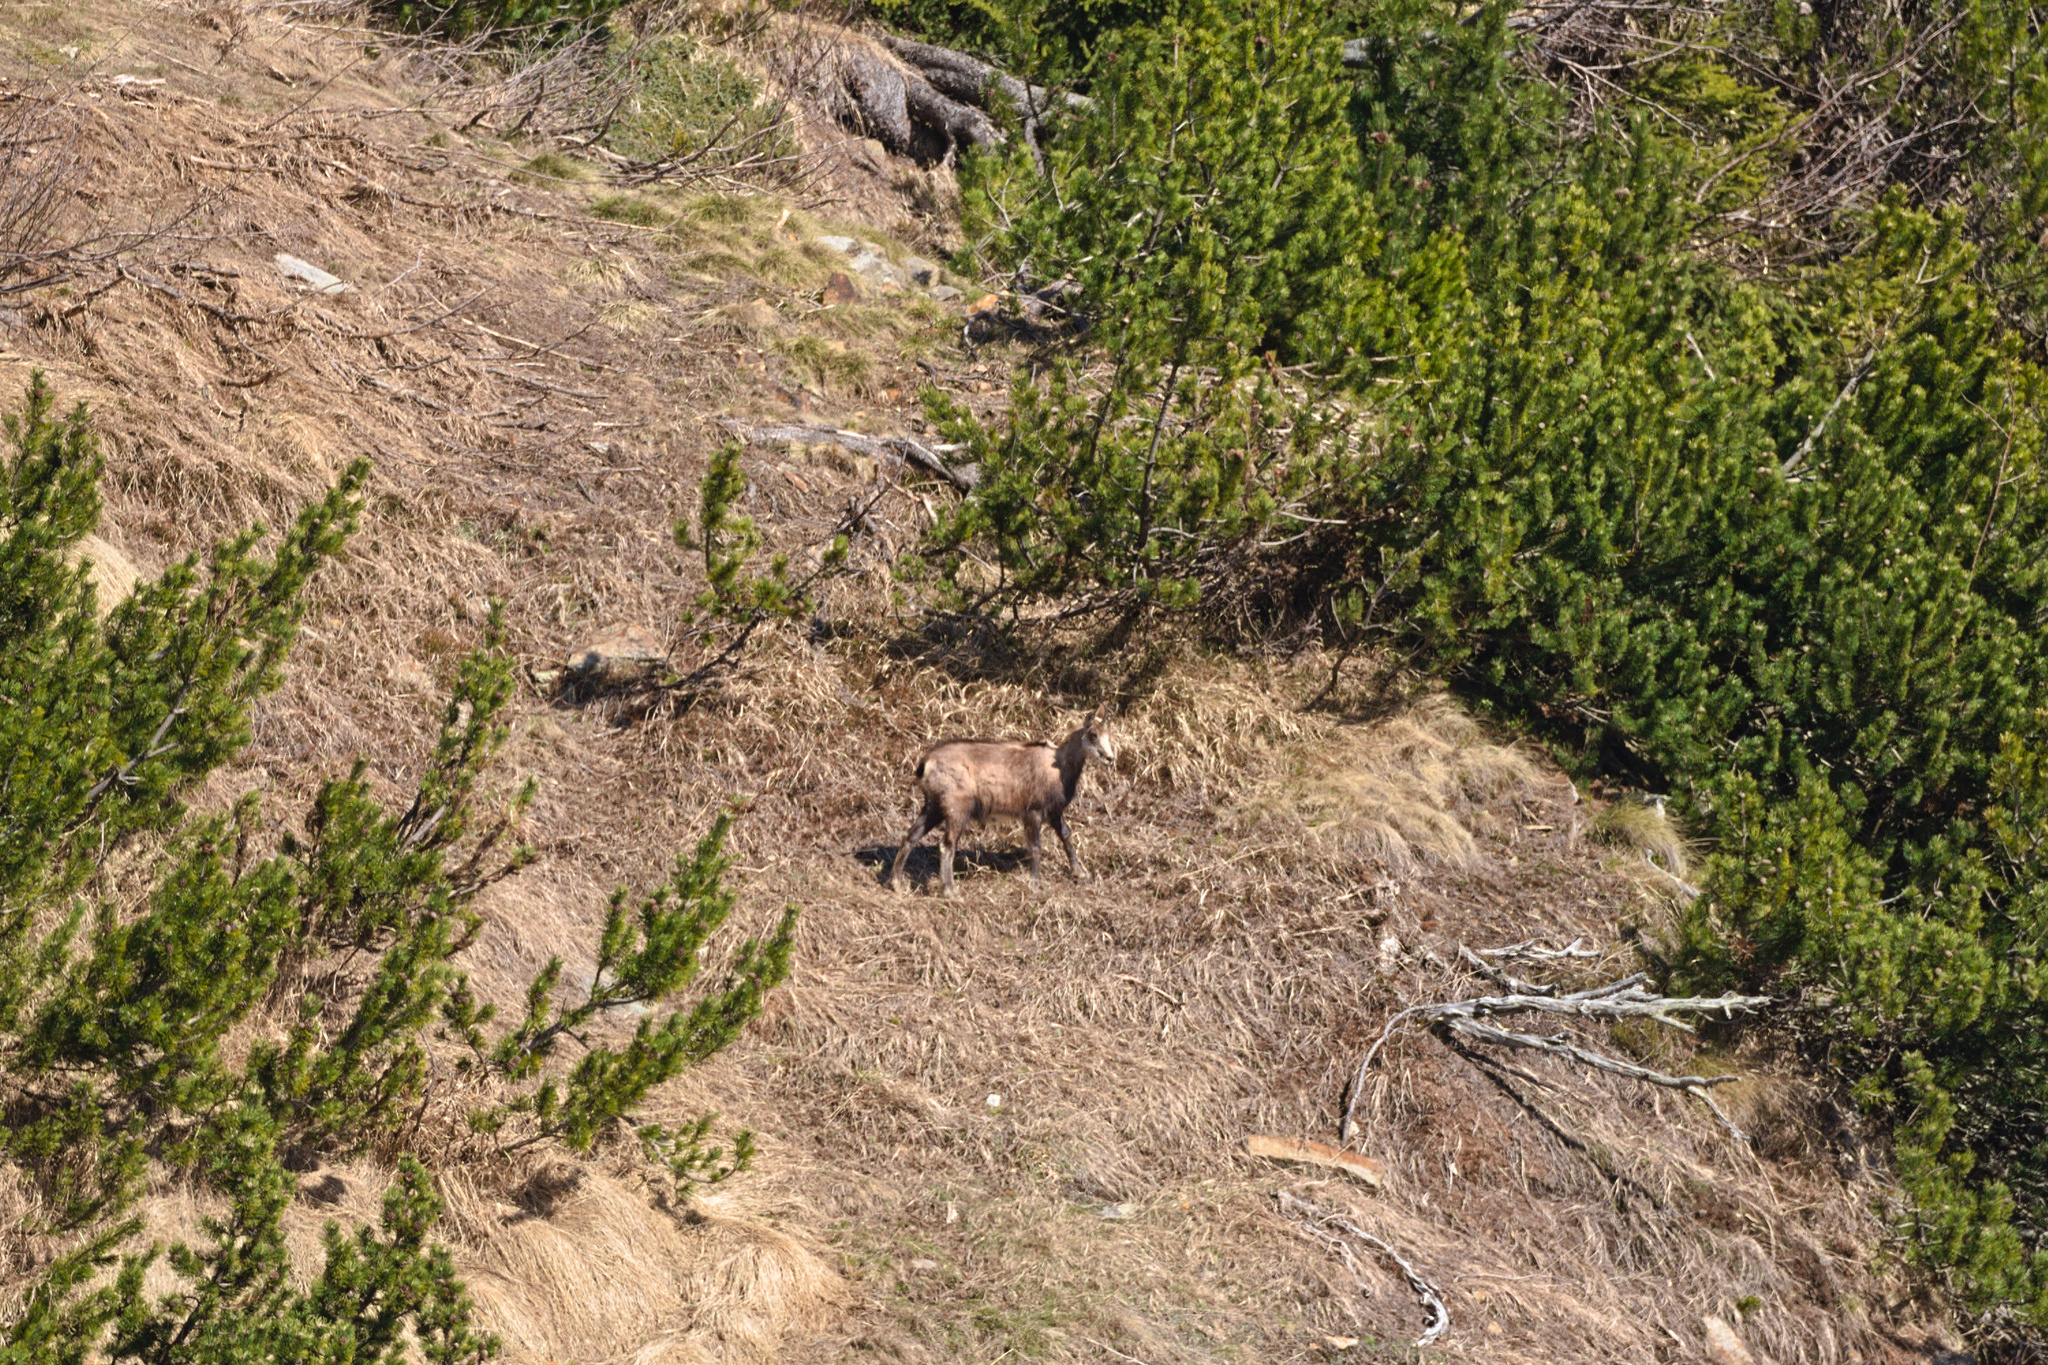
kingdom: Animalia
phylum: Chordata
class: Mammalia
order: Artiodactyla
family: Bovidae
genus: Rupicapra
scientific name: Rupicapra rupicapra
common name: Chamois
